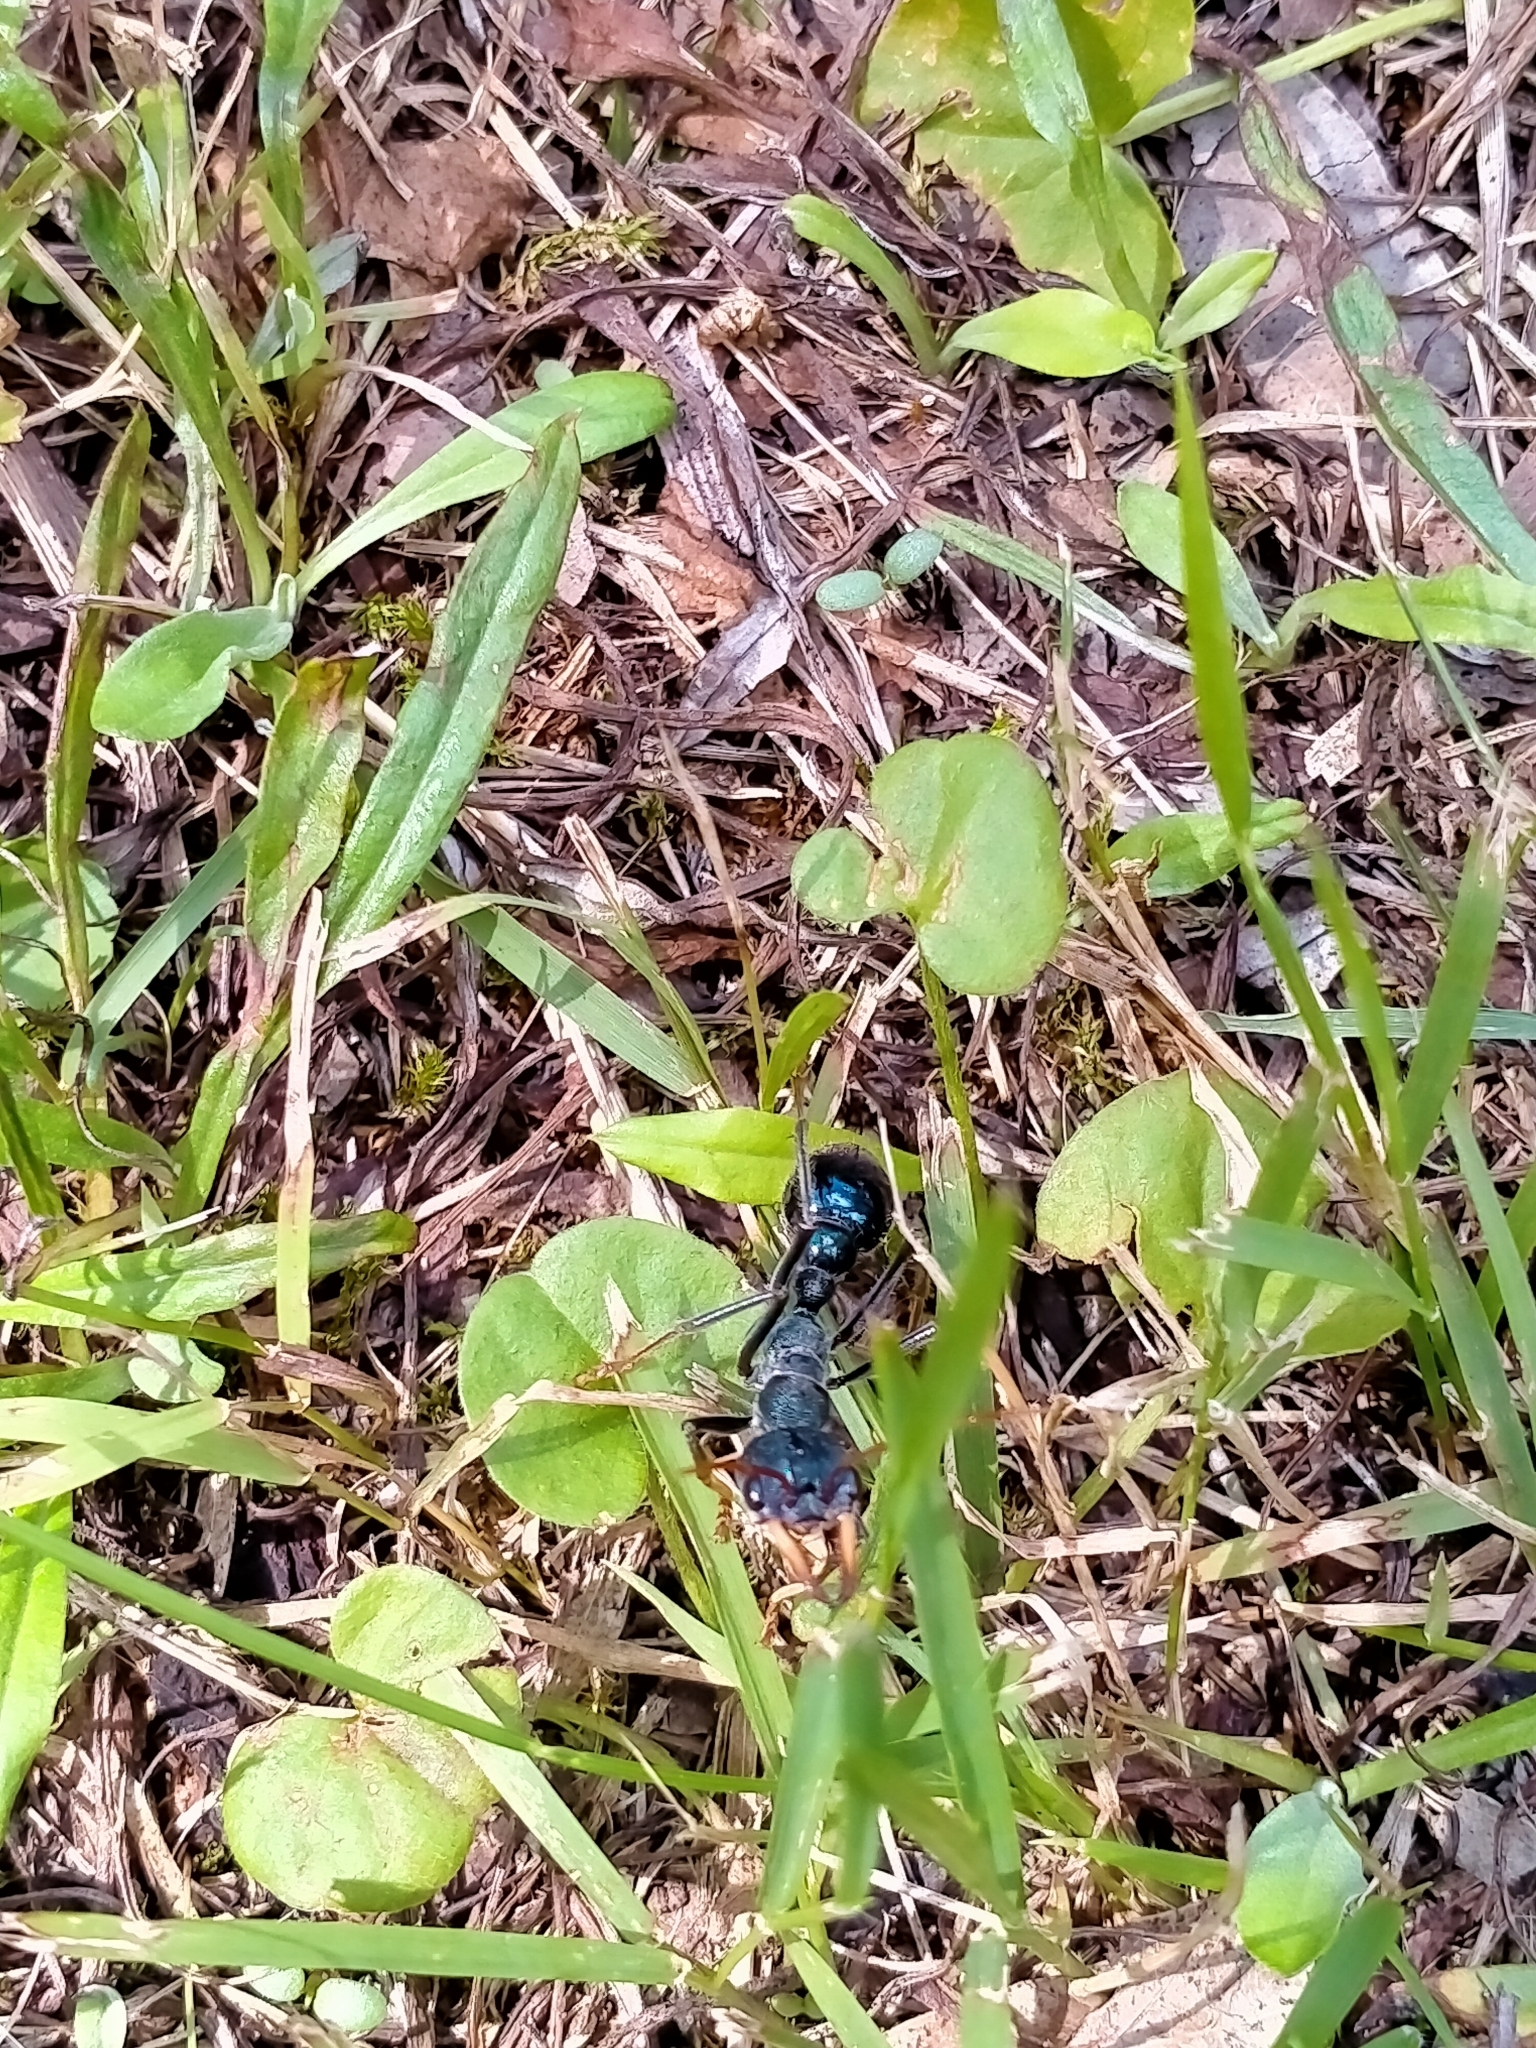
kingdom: Animalia
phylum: Arthropoda
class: Insecta
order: Hymenoptera
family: Formicidae
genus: Myrmecia
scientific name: Myrmecia tarsata
